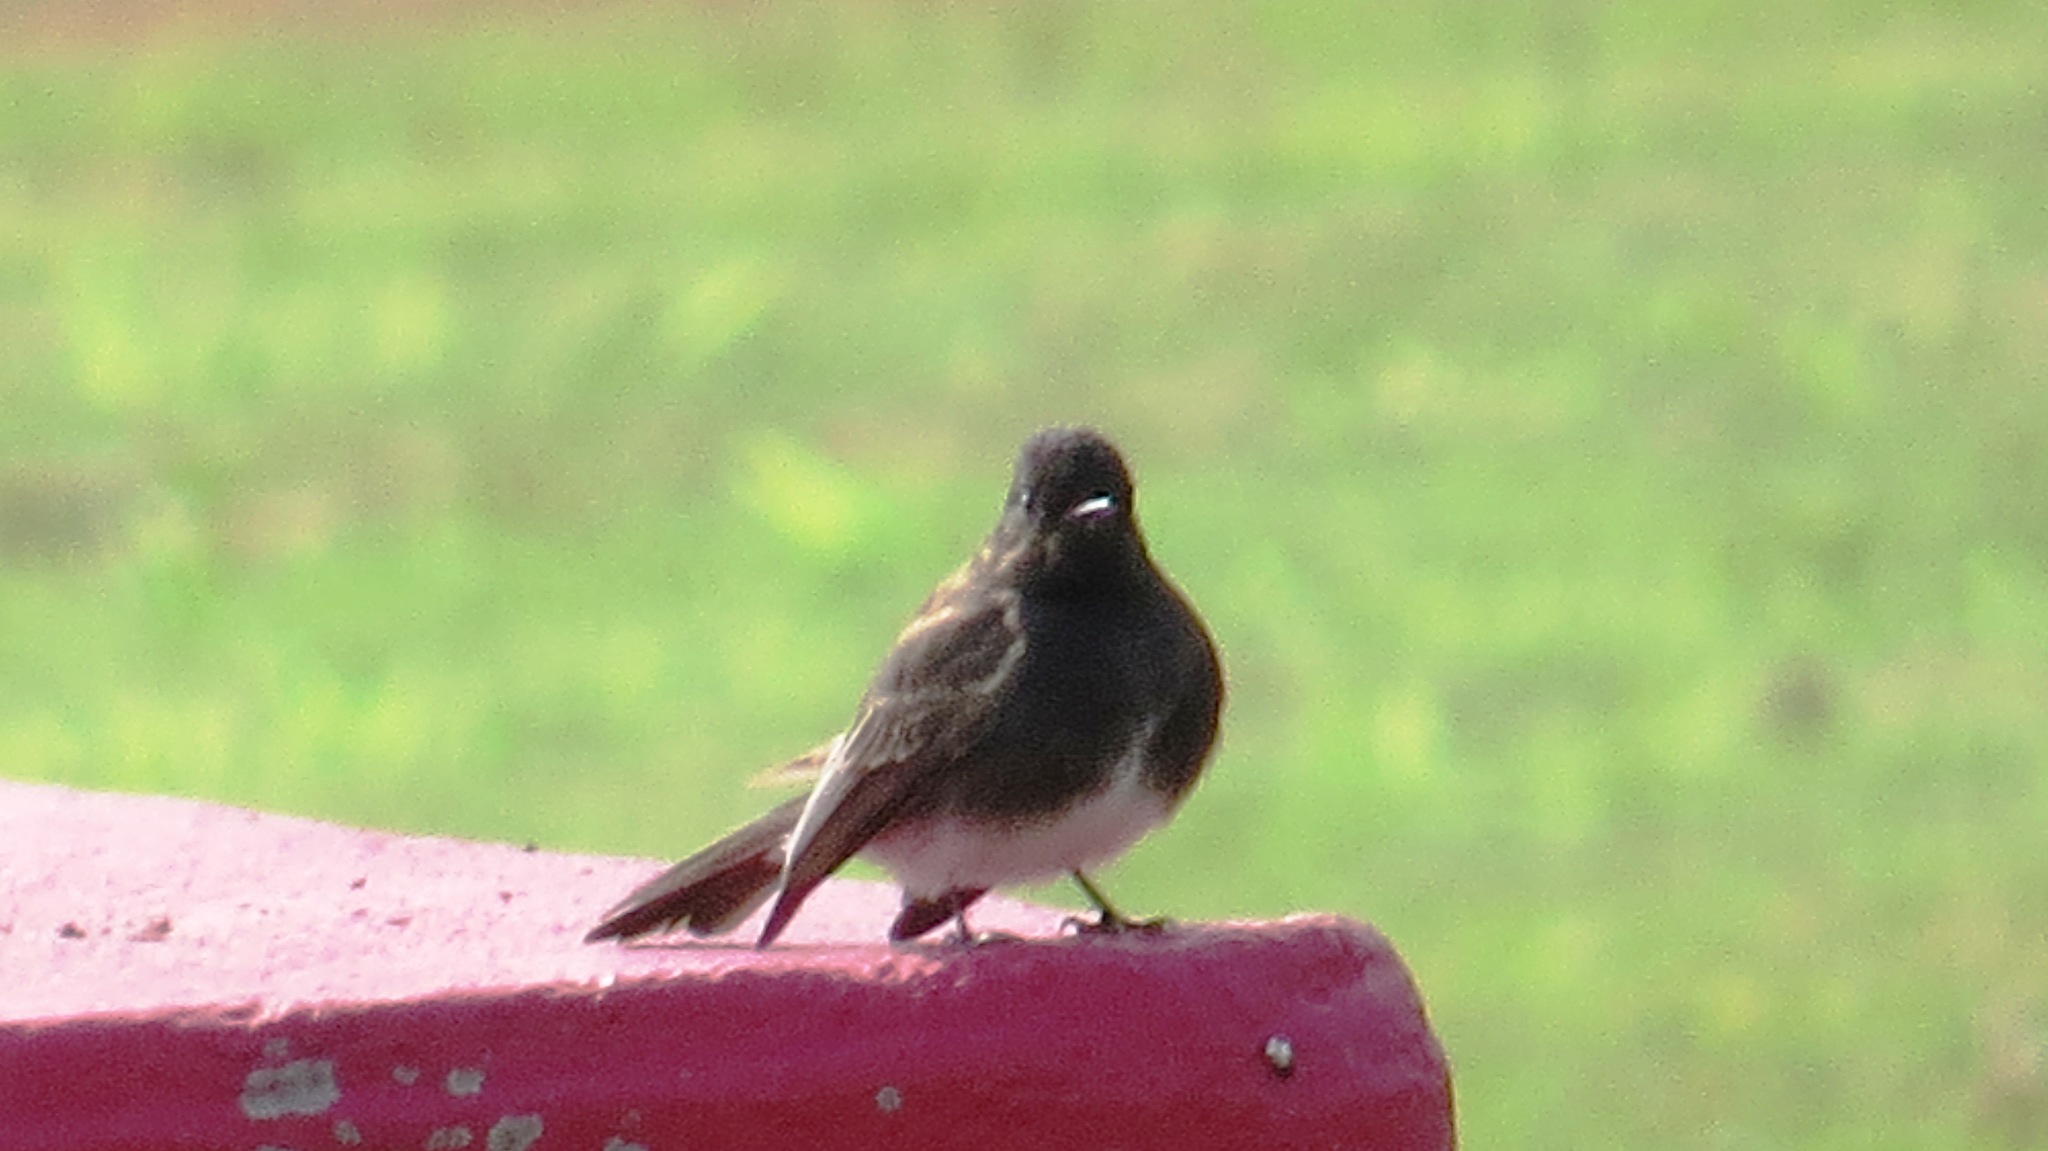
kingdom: Animalia
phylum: Chordata
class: Aves
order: Passeriformes
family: Tyrannidae
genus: Sayornis
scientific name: Sayornis nigricans
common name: Black phoebe
